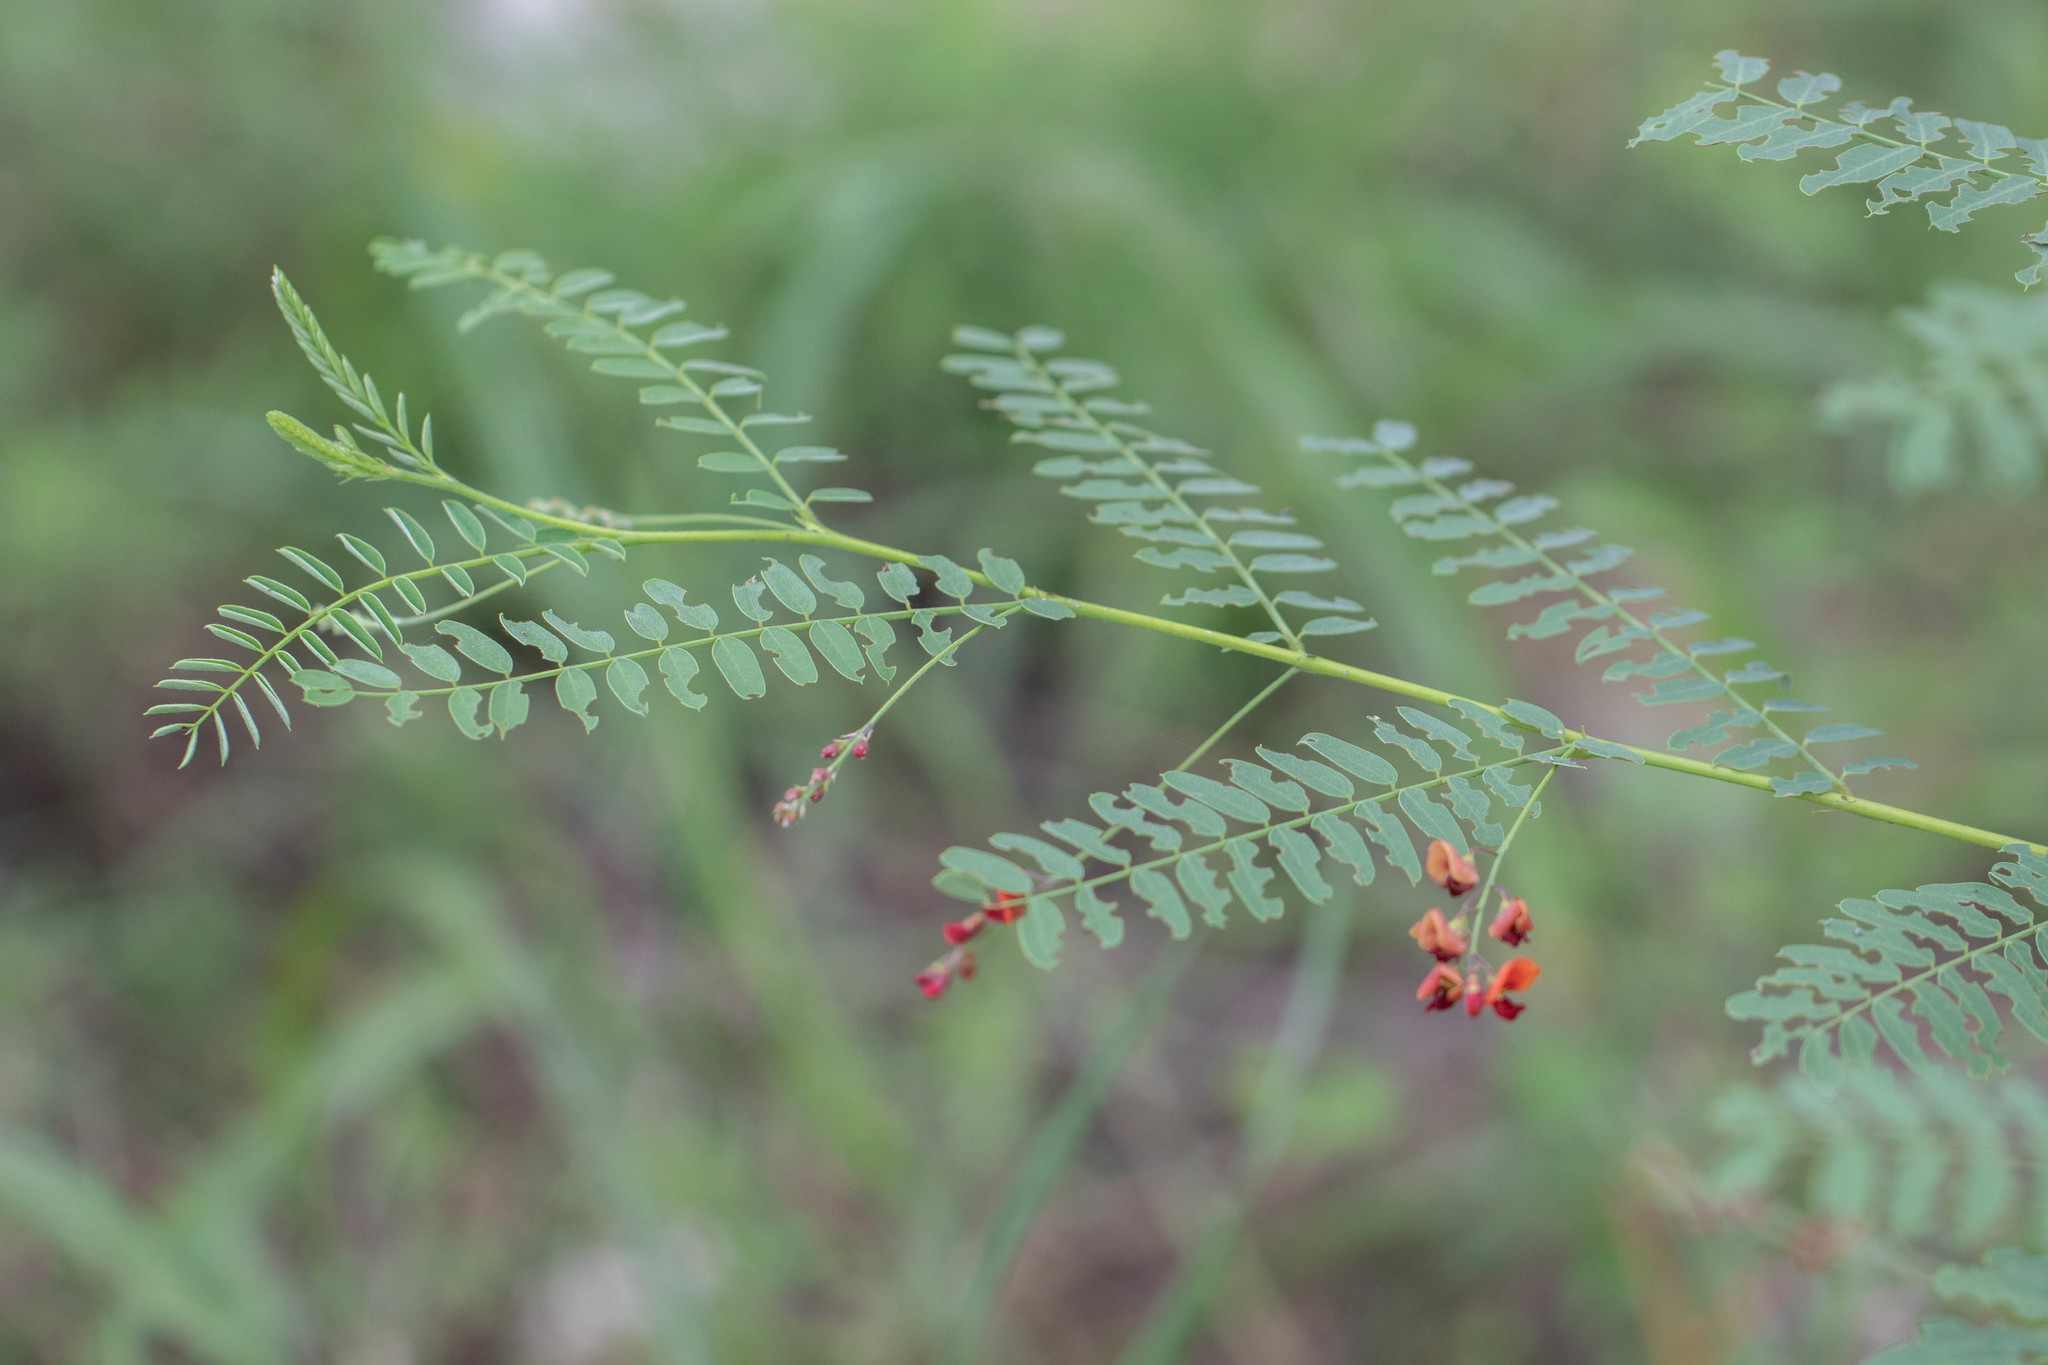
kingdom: Plantae
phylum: Tracheophyta
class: Magnoliopsida
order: Fabales
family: Fabaceae
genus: Sesbania
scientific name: Sesbania vesicaria
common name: Bagpod
